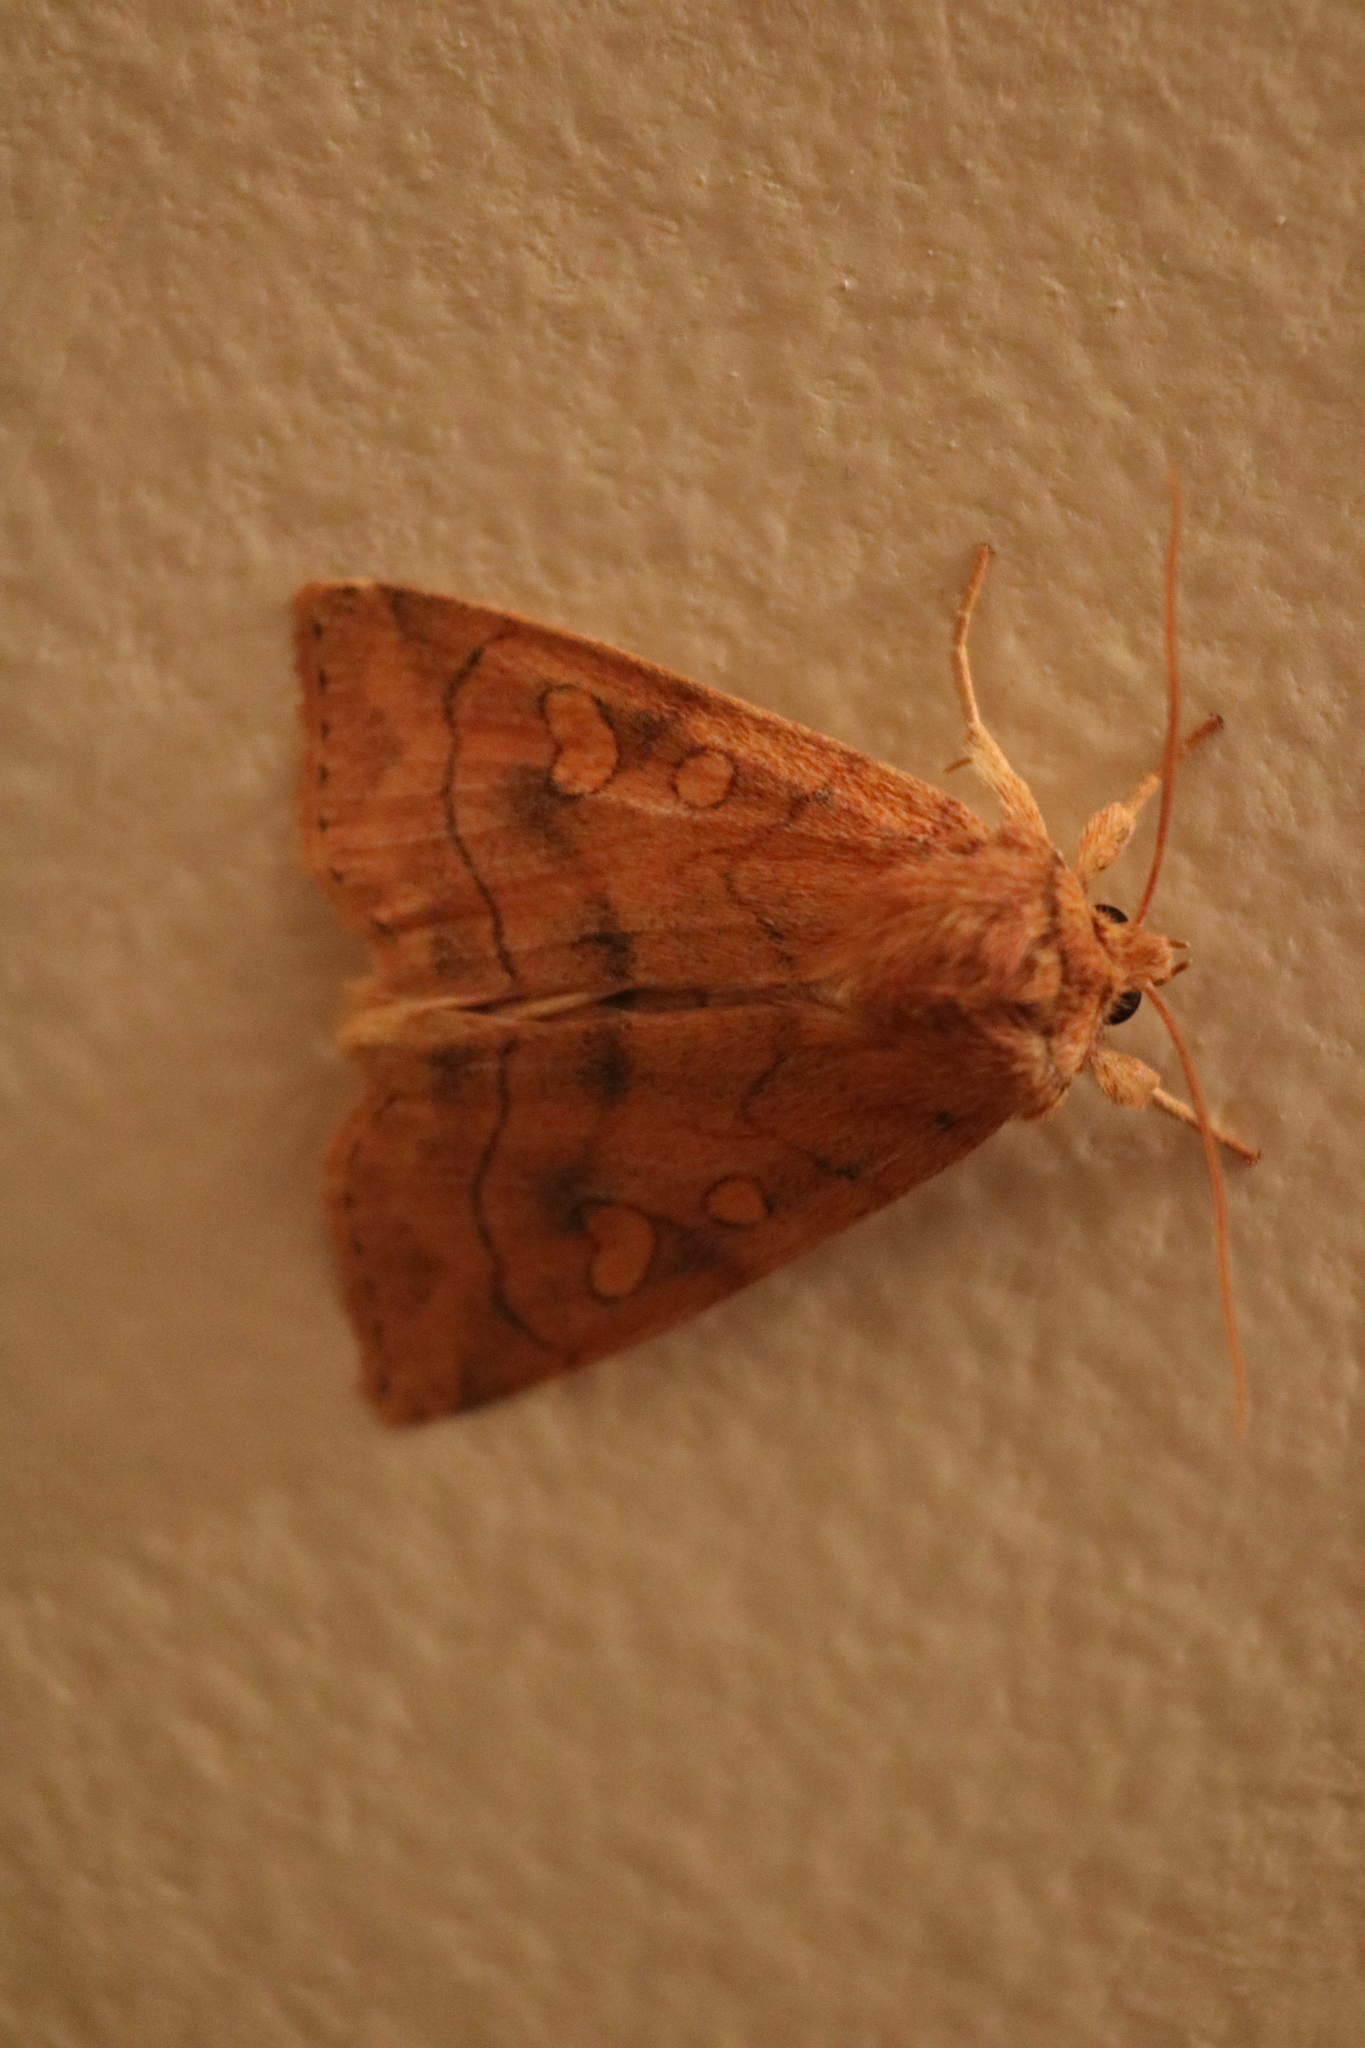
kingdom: Animalia
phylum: Arthropoda
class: Insecta
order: Lepidoptera
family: Noctuidae
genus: Enargia
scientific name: Enargia decolor
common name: Aspen twoleaf tier moth
